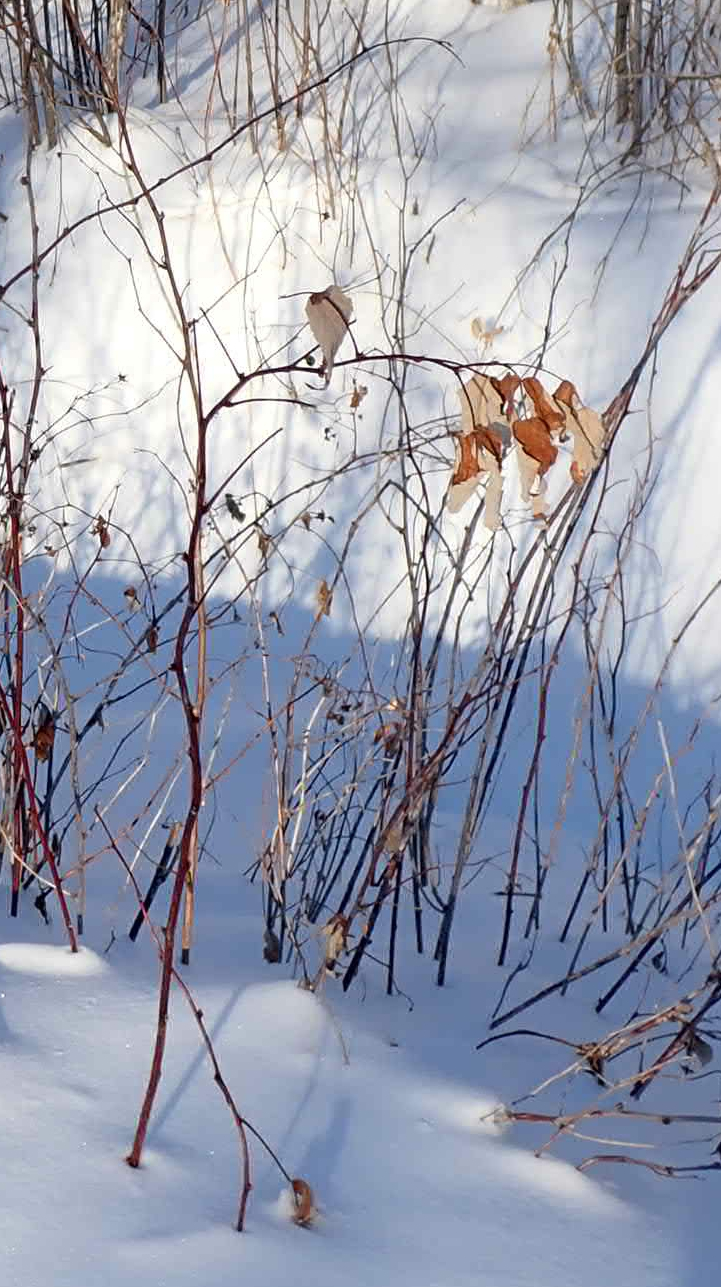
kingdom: Plantae
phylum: Tracheophyta
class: Magnoliopsida
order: Rosales
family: Rosaceae
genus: Rubus
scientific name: Rubus idaeus
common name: Raspberry
